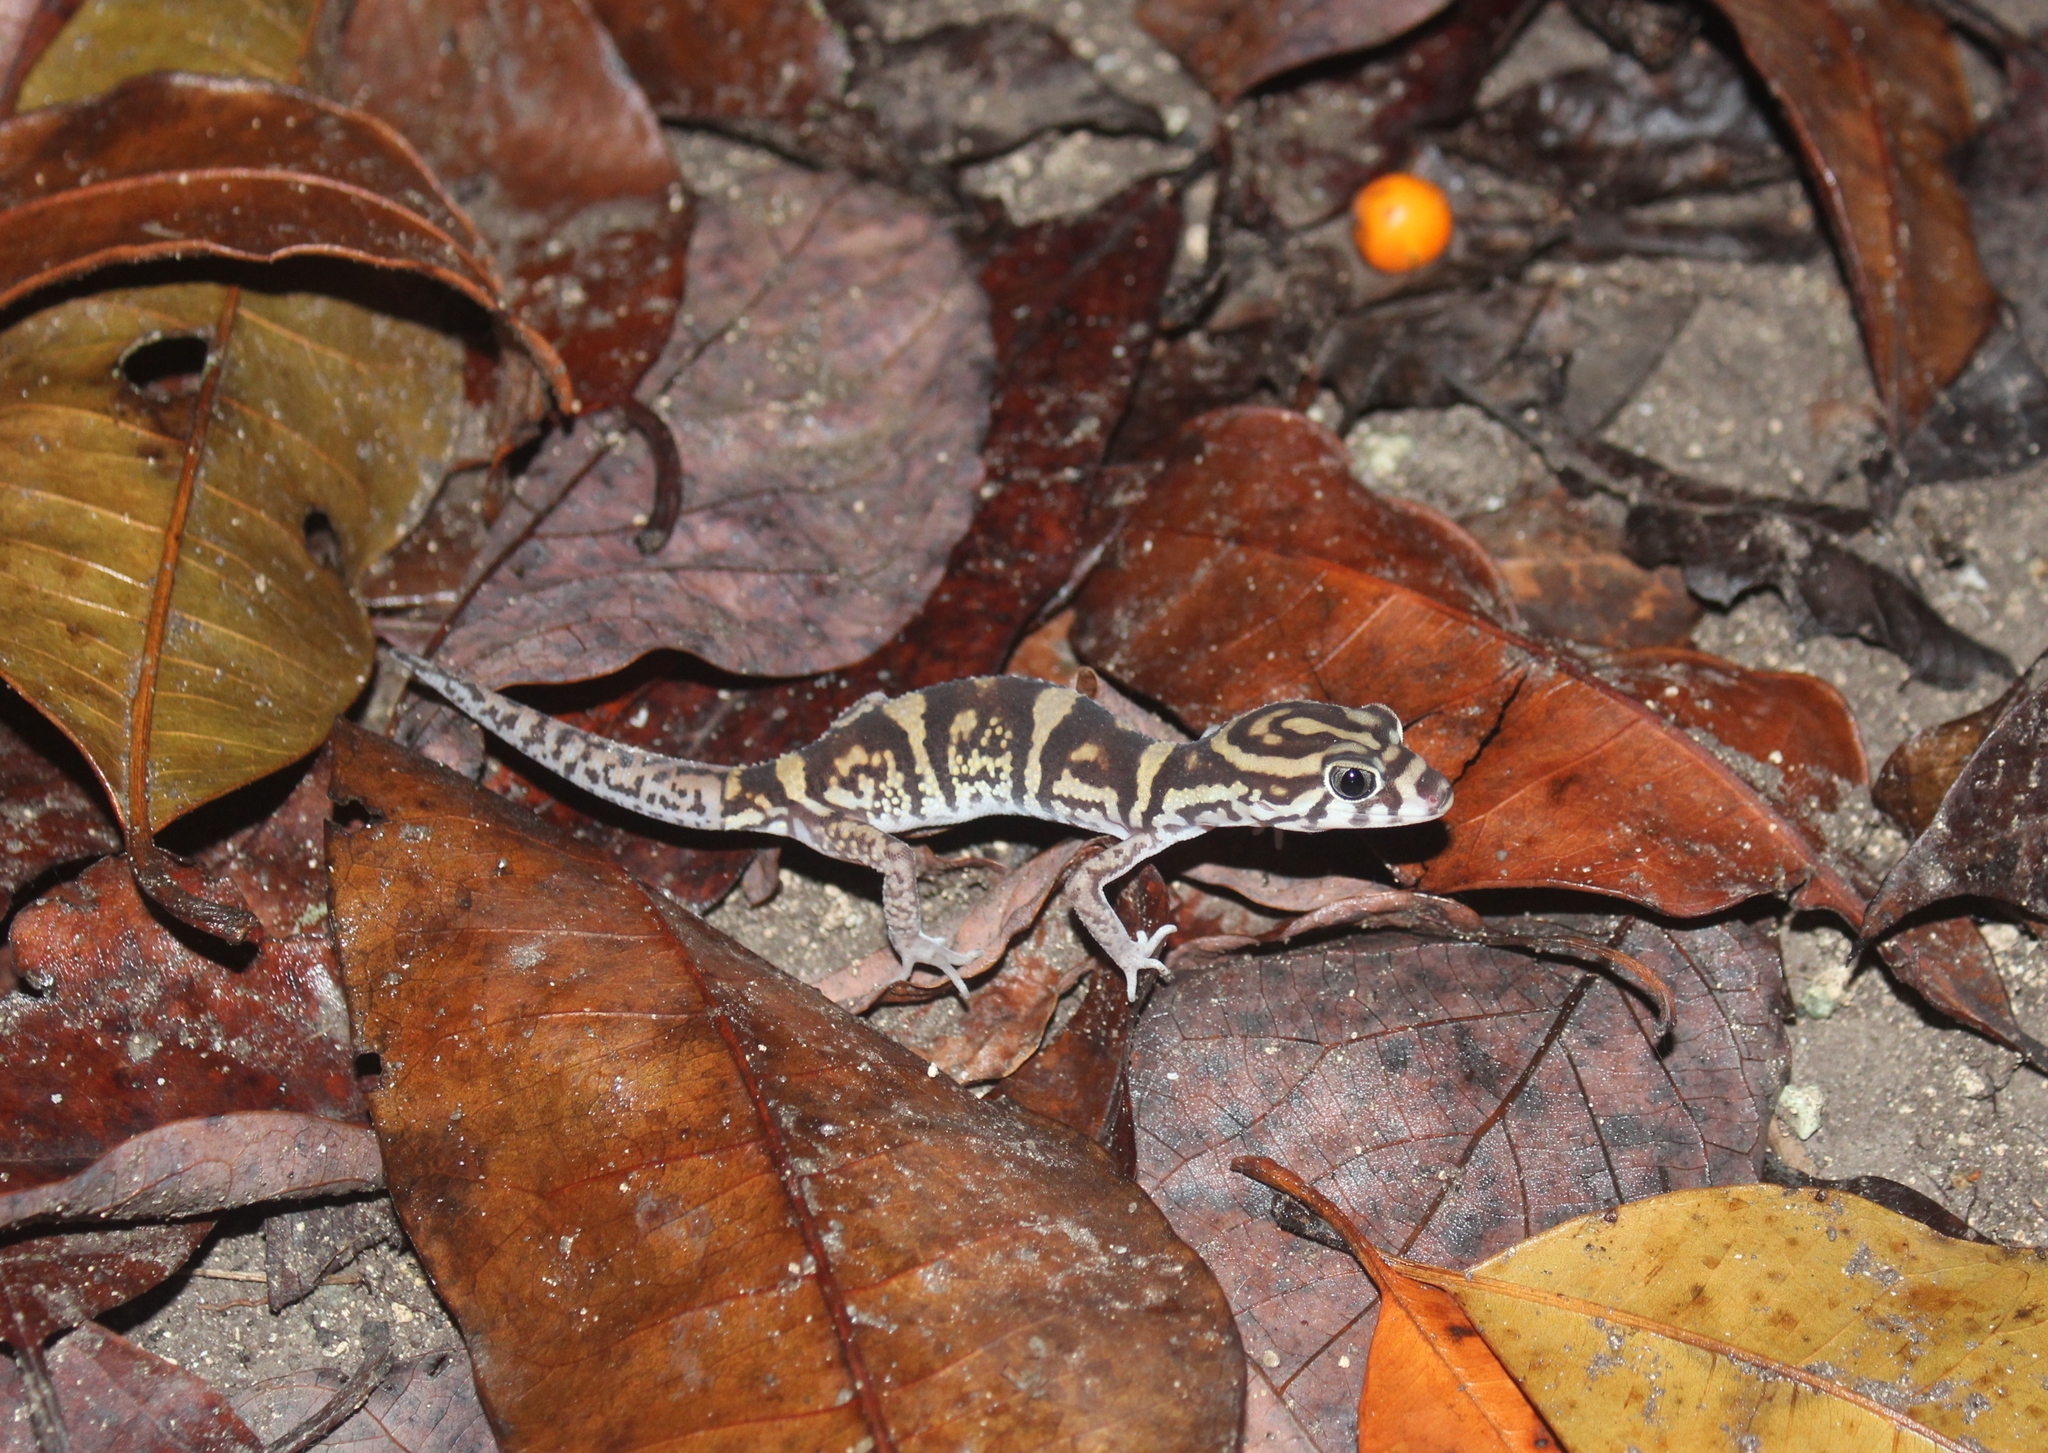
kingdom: Animalia
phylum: Chordata
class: Squamata
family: Eublepharidae
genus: Coleonyx
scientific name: Coleonyx elegans
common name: Yucatan banded gecko
